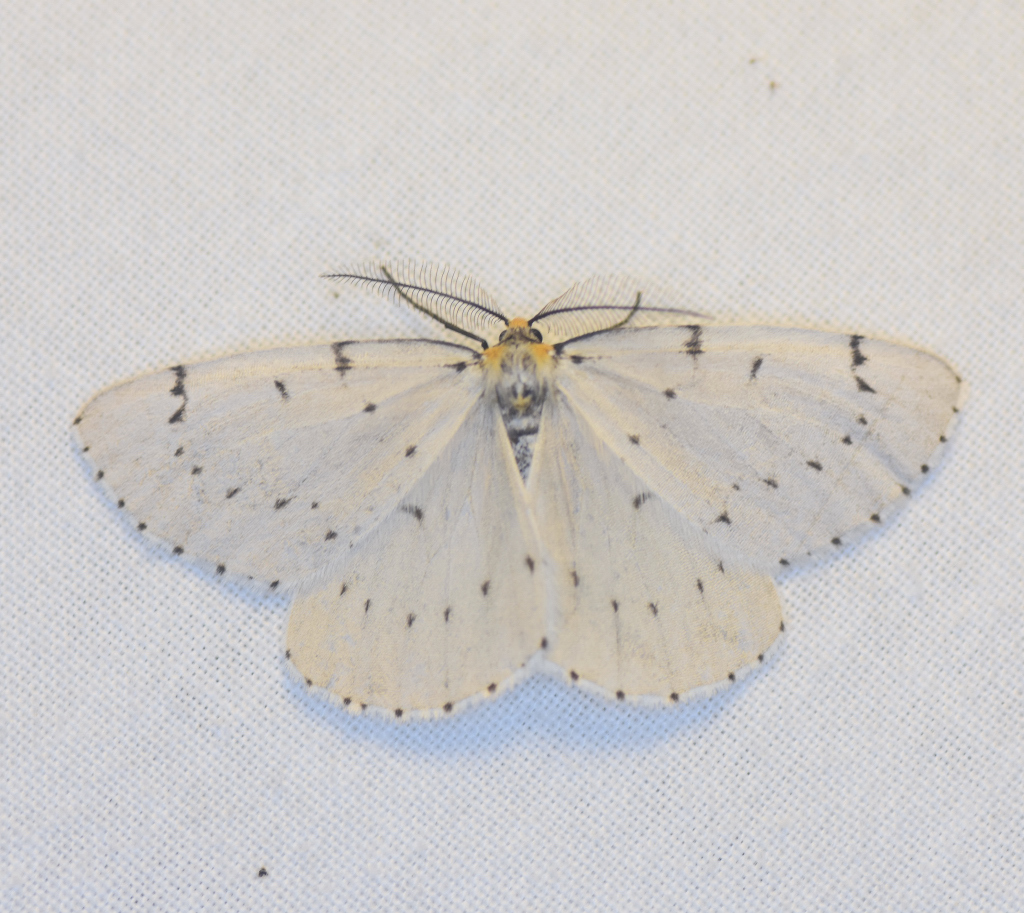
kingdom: Animalia
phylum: Arthropoda
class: Insecta
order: Lepidoptera
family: Geometridae
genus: Cingilia
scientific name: Cingilia catenaria
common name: Chain-dotted geometer
